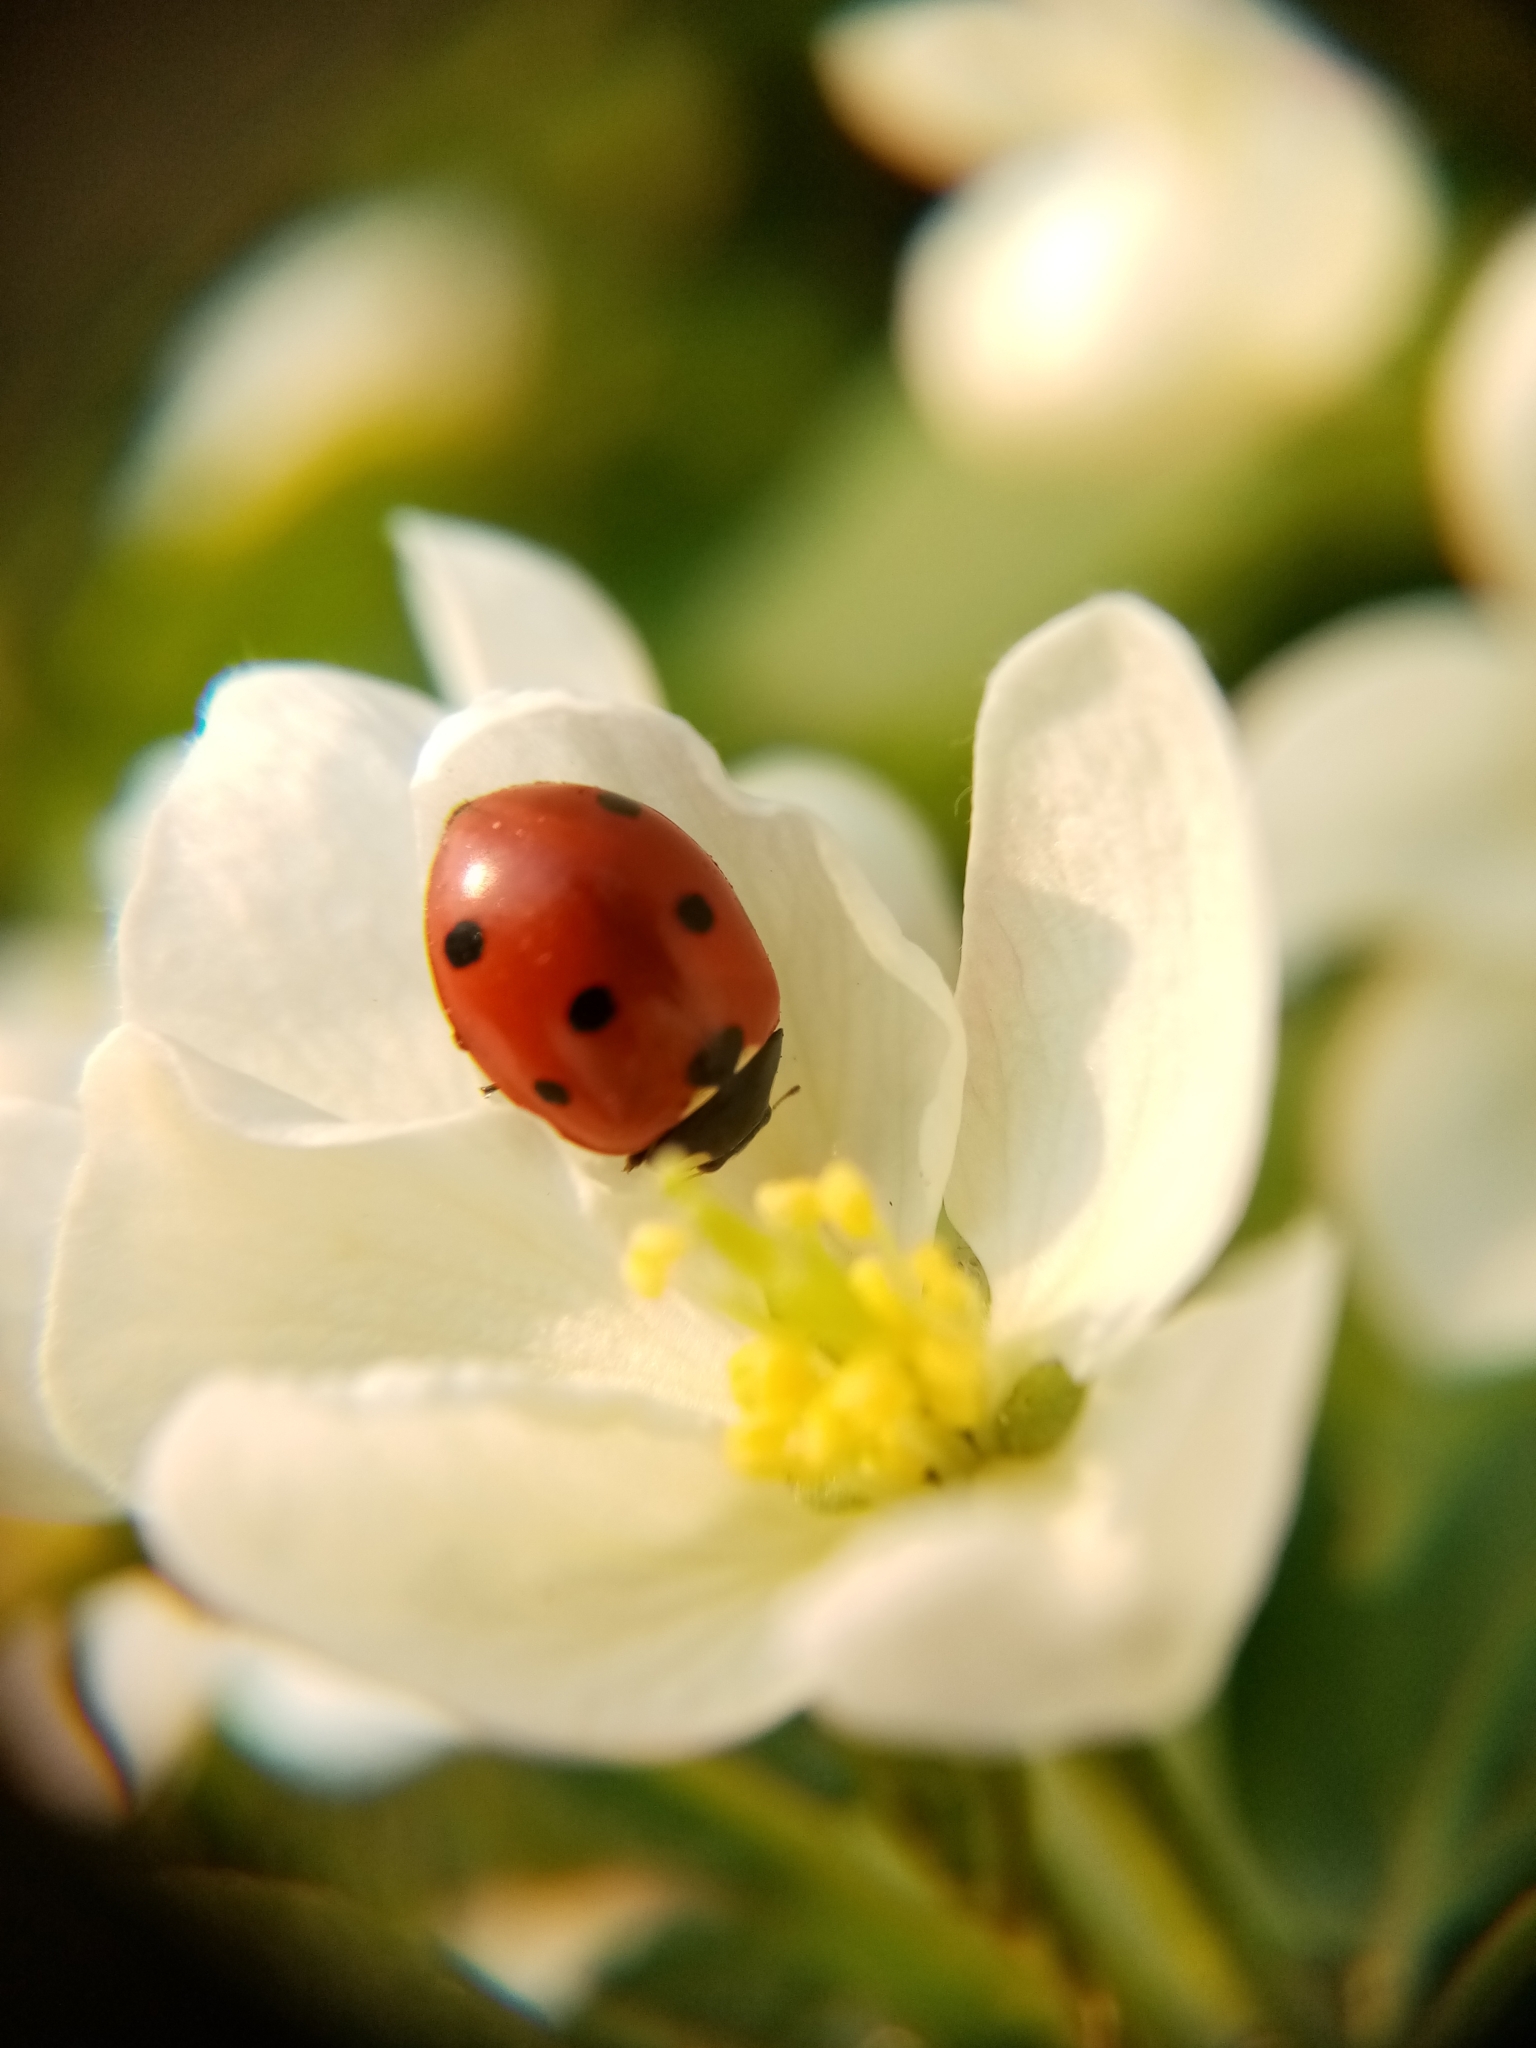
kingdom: Animalia
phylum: Arthropoda
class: Insecta
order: Coleoptera
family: Coccinellidae
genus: Coccinella
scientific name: Coccinella septempunctata
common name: Sevenspotted lady beetle
